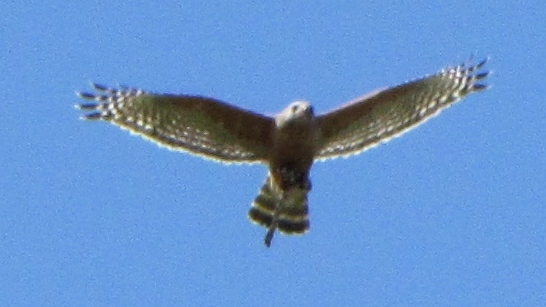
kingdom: Animalia
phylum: Chordata
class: Aves
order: Accipitriformes
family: Accipitridae
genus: Buteo
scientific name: Buteo lineatus
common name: Red-shouldered hawk
